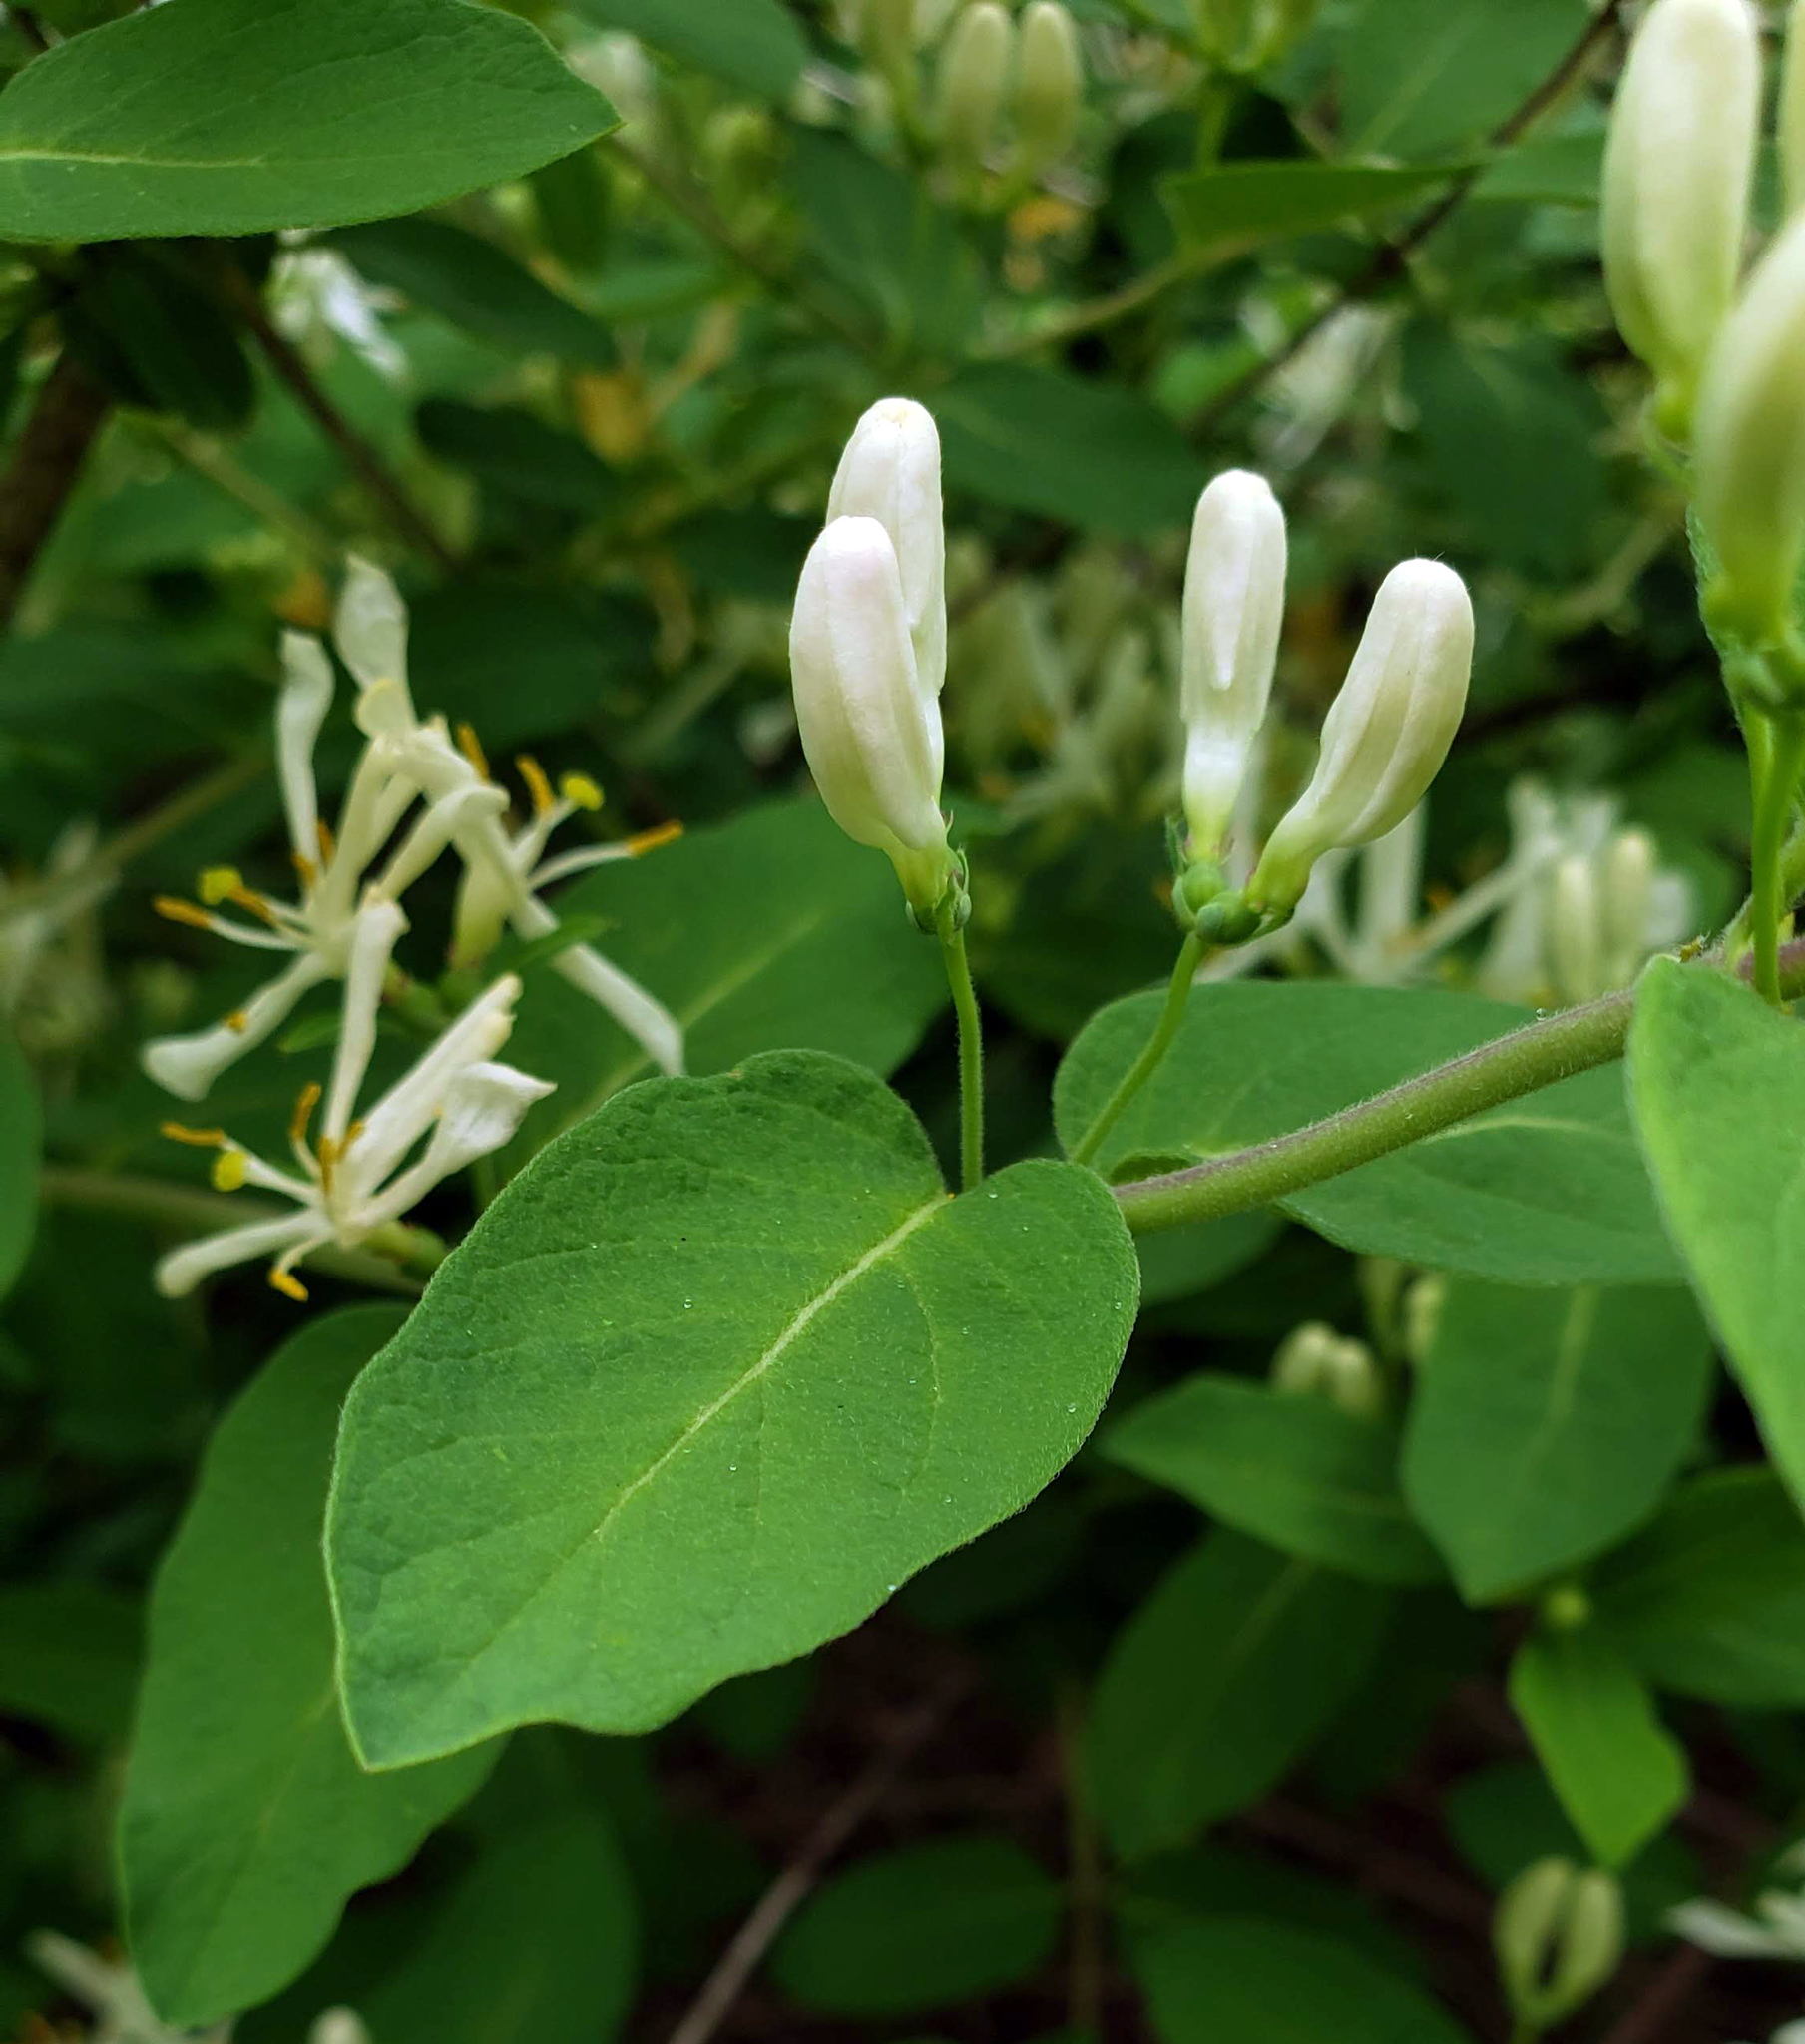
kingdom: Plantae
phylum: Tracheophyta
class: Magnoliopsida
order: Dipsacales
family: Caprifoliaceae
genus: Lonicera
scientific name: Lonicera morrowii
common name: Morrow's honeysuckle
